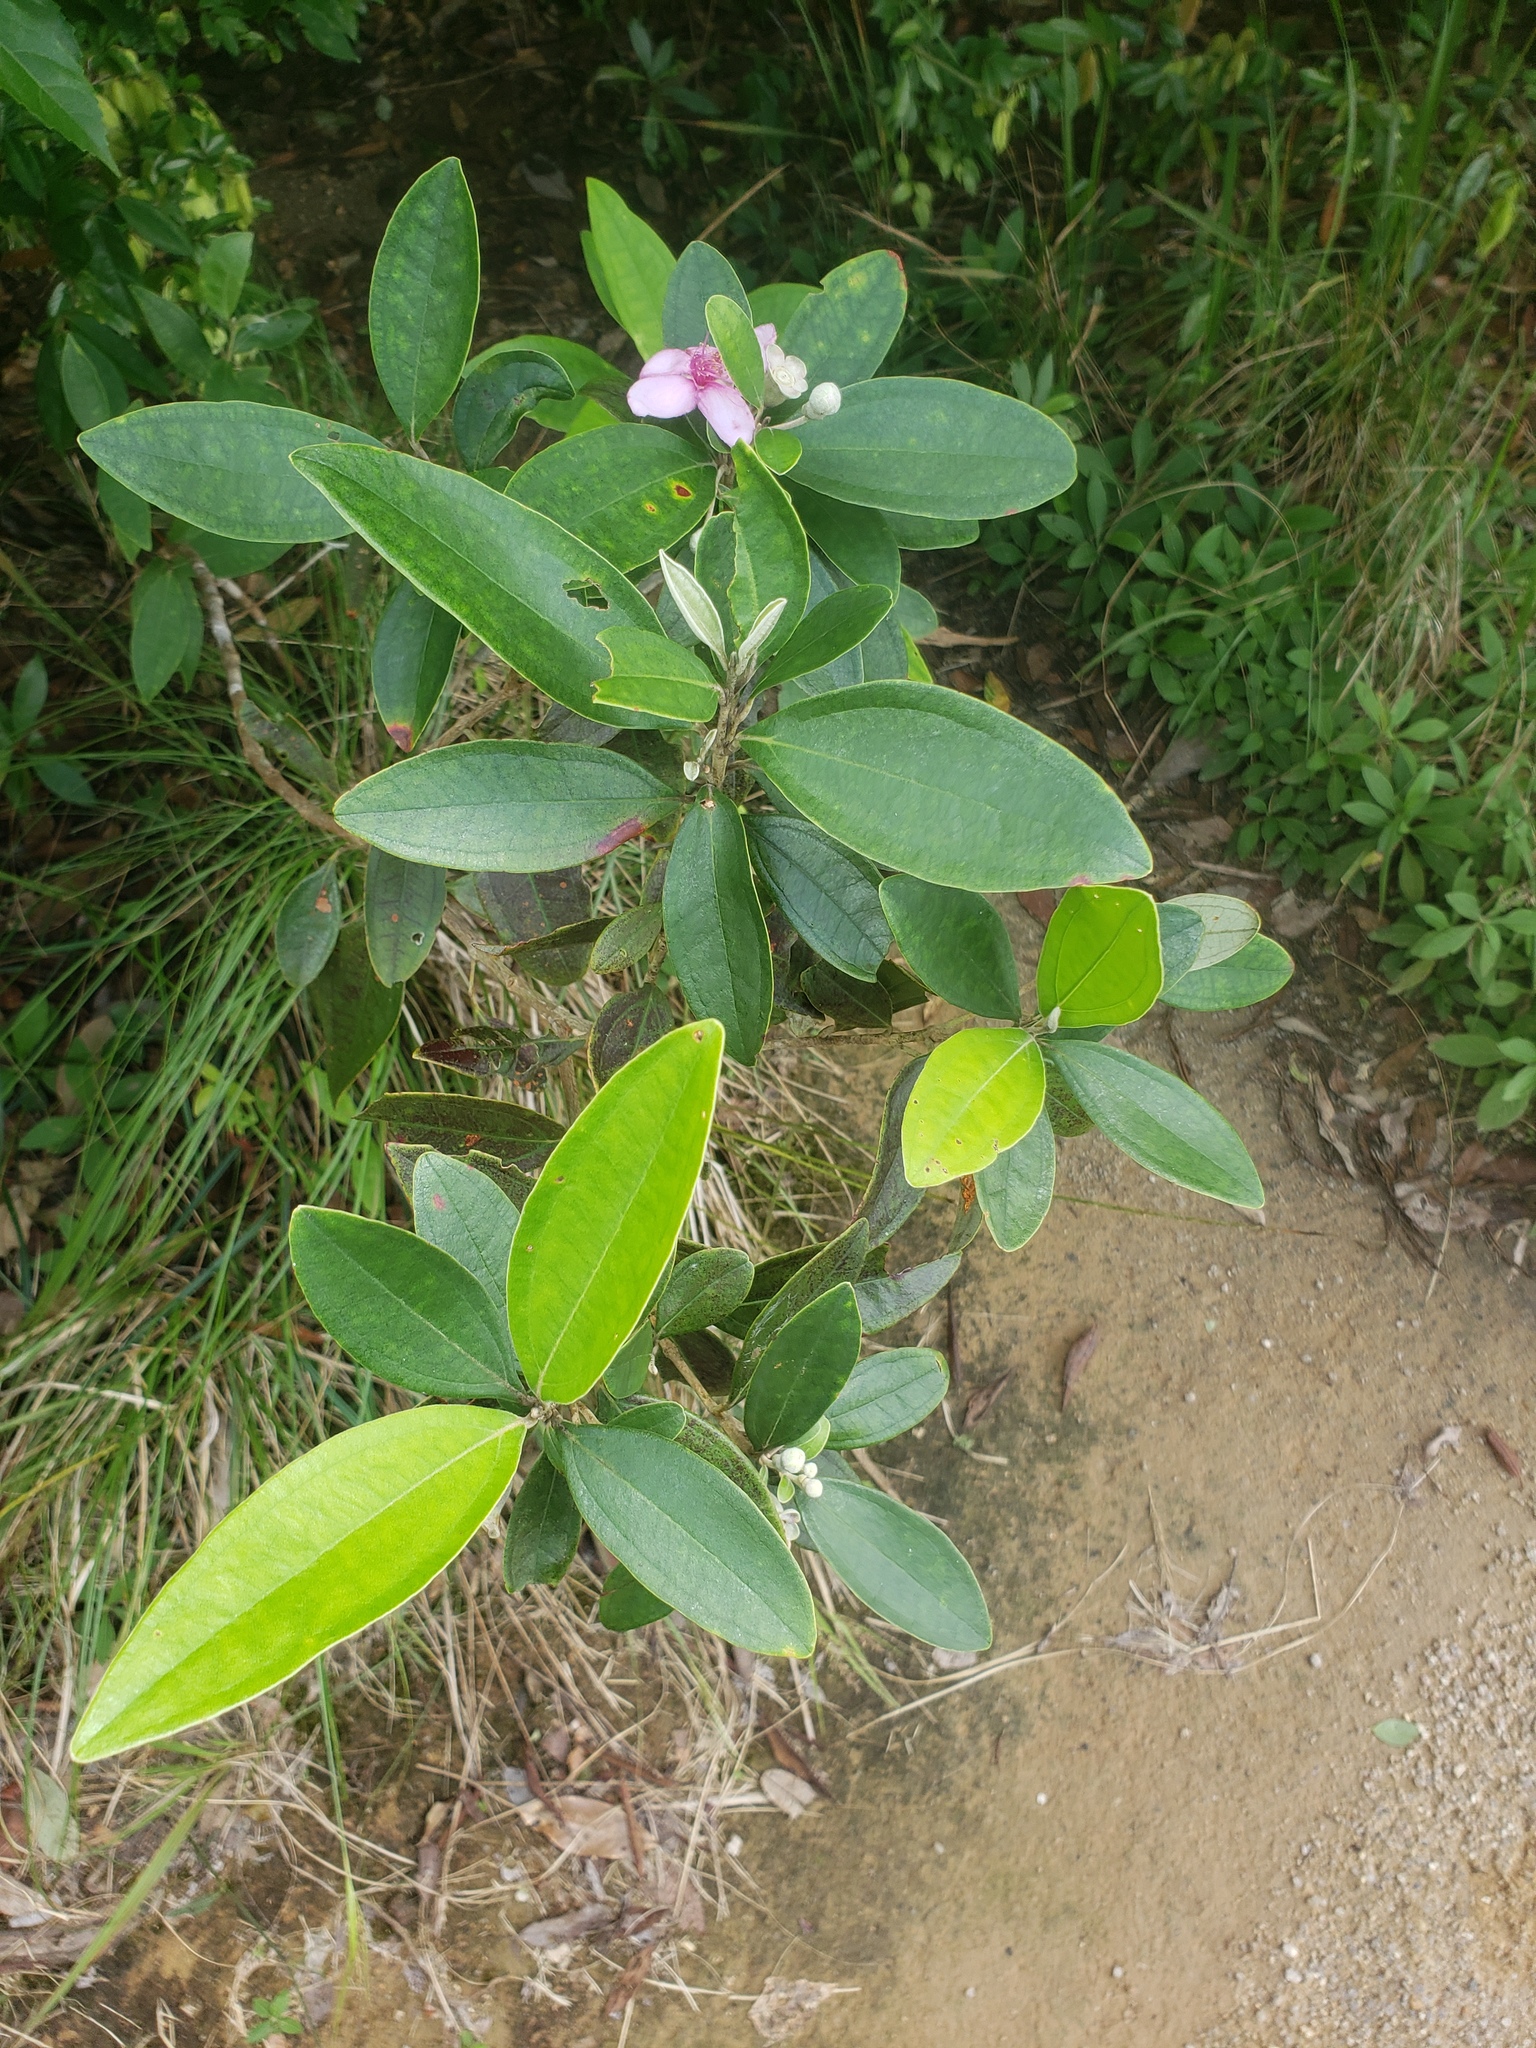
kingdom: Plantae
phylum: Tracheophyta
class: Magnoliopsida
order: Myrtales
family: Myrtaceae
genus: Rhodomyrtus
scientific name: Rhodomyrtus tomentosa
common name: Rose myrtle
